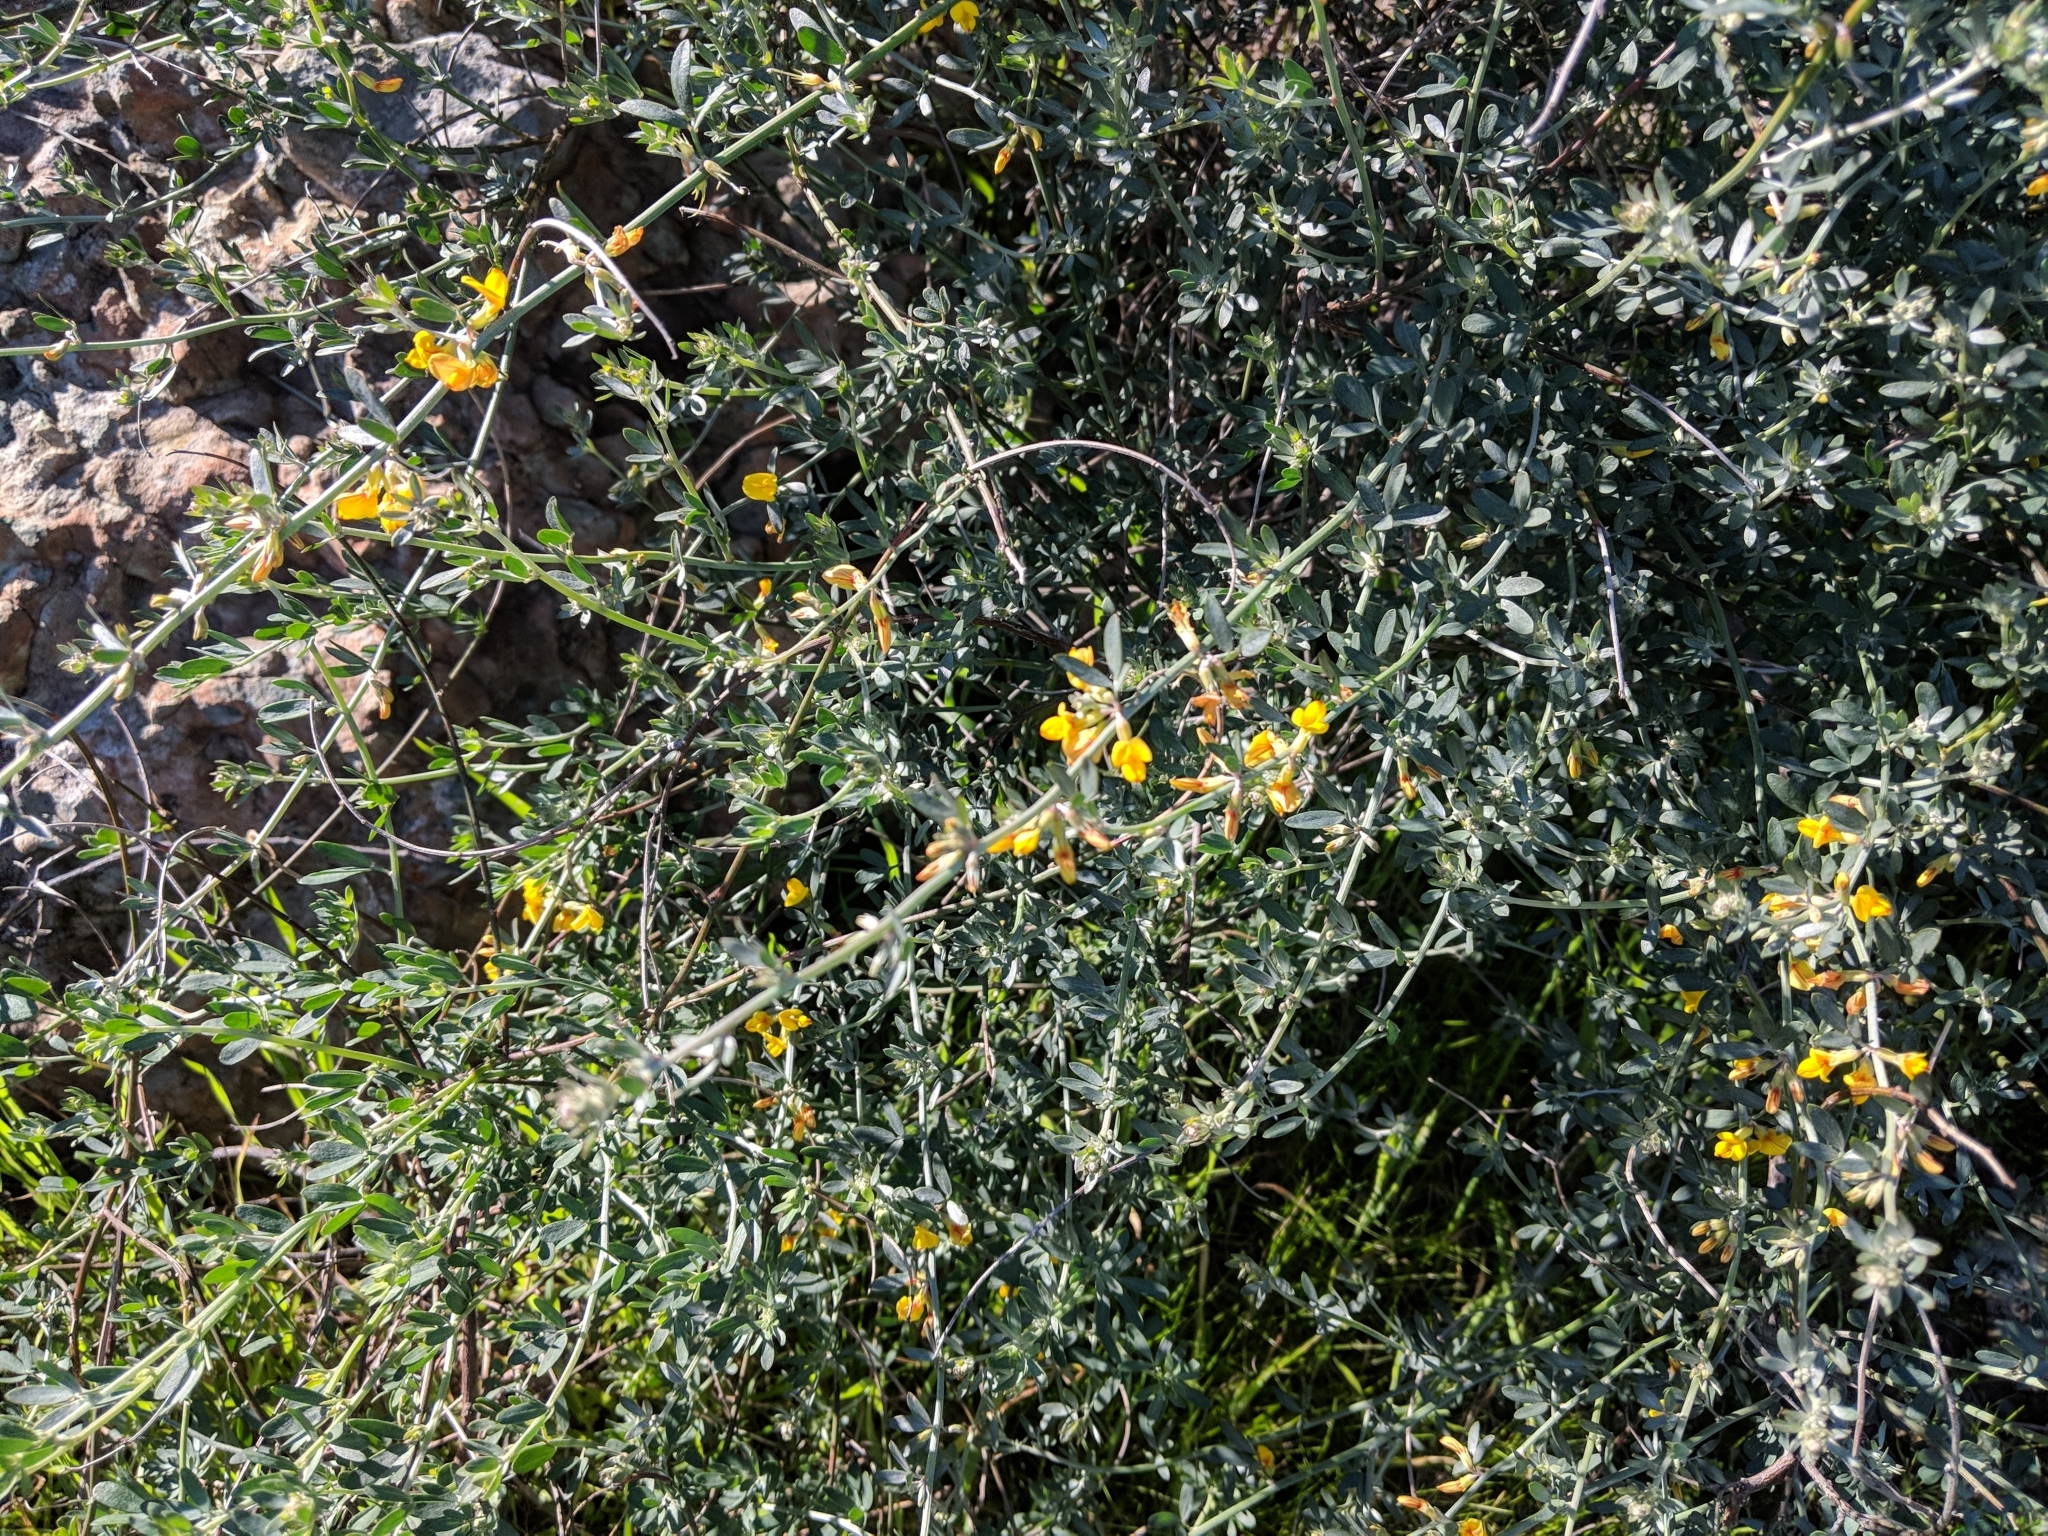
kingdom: Plantae
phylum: Tracheophyta
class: Magnoliopsida
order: Fabales
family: Fabaceae
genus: Acmispon
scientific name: Acmispon glaber
